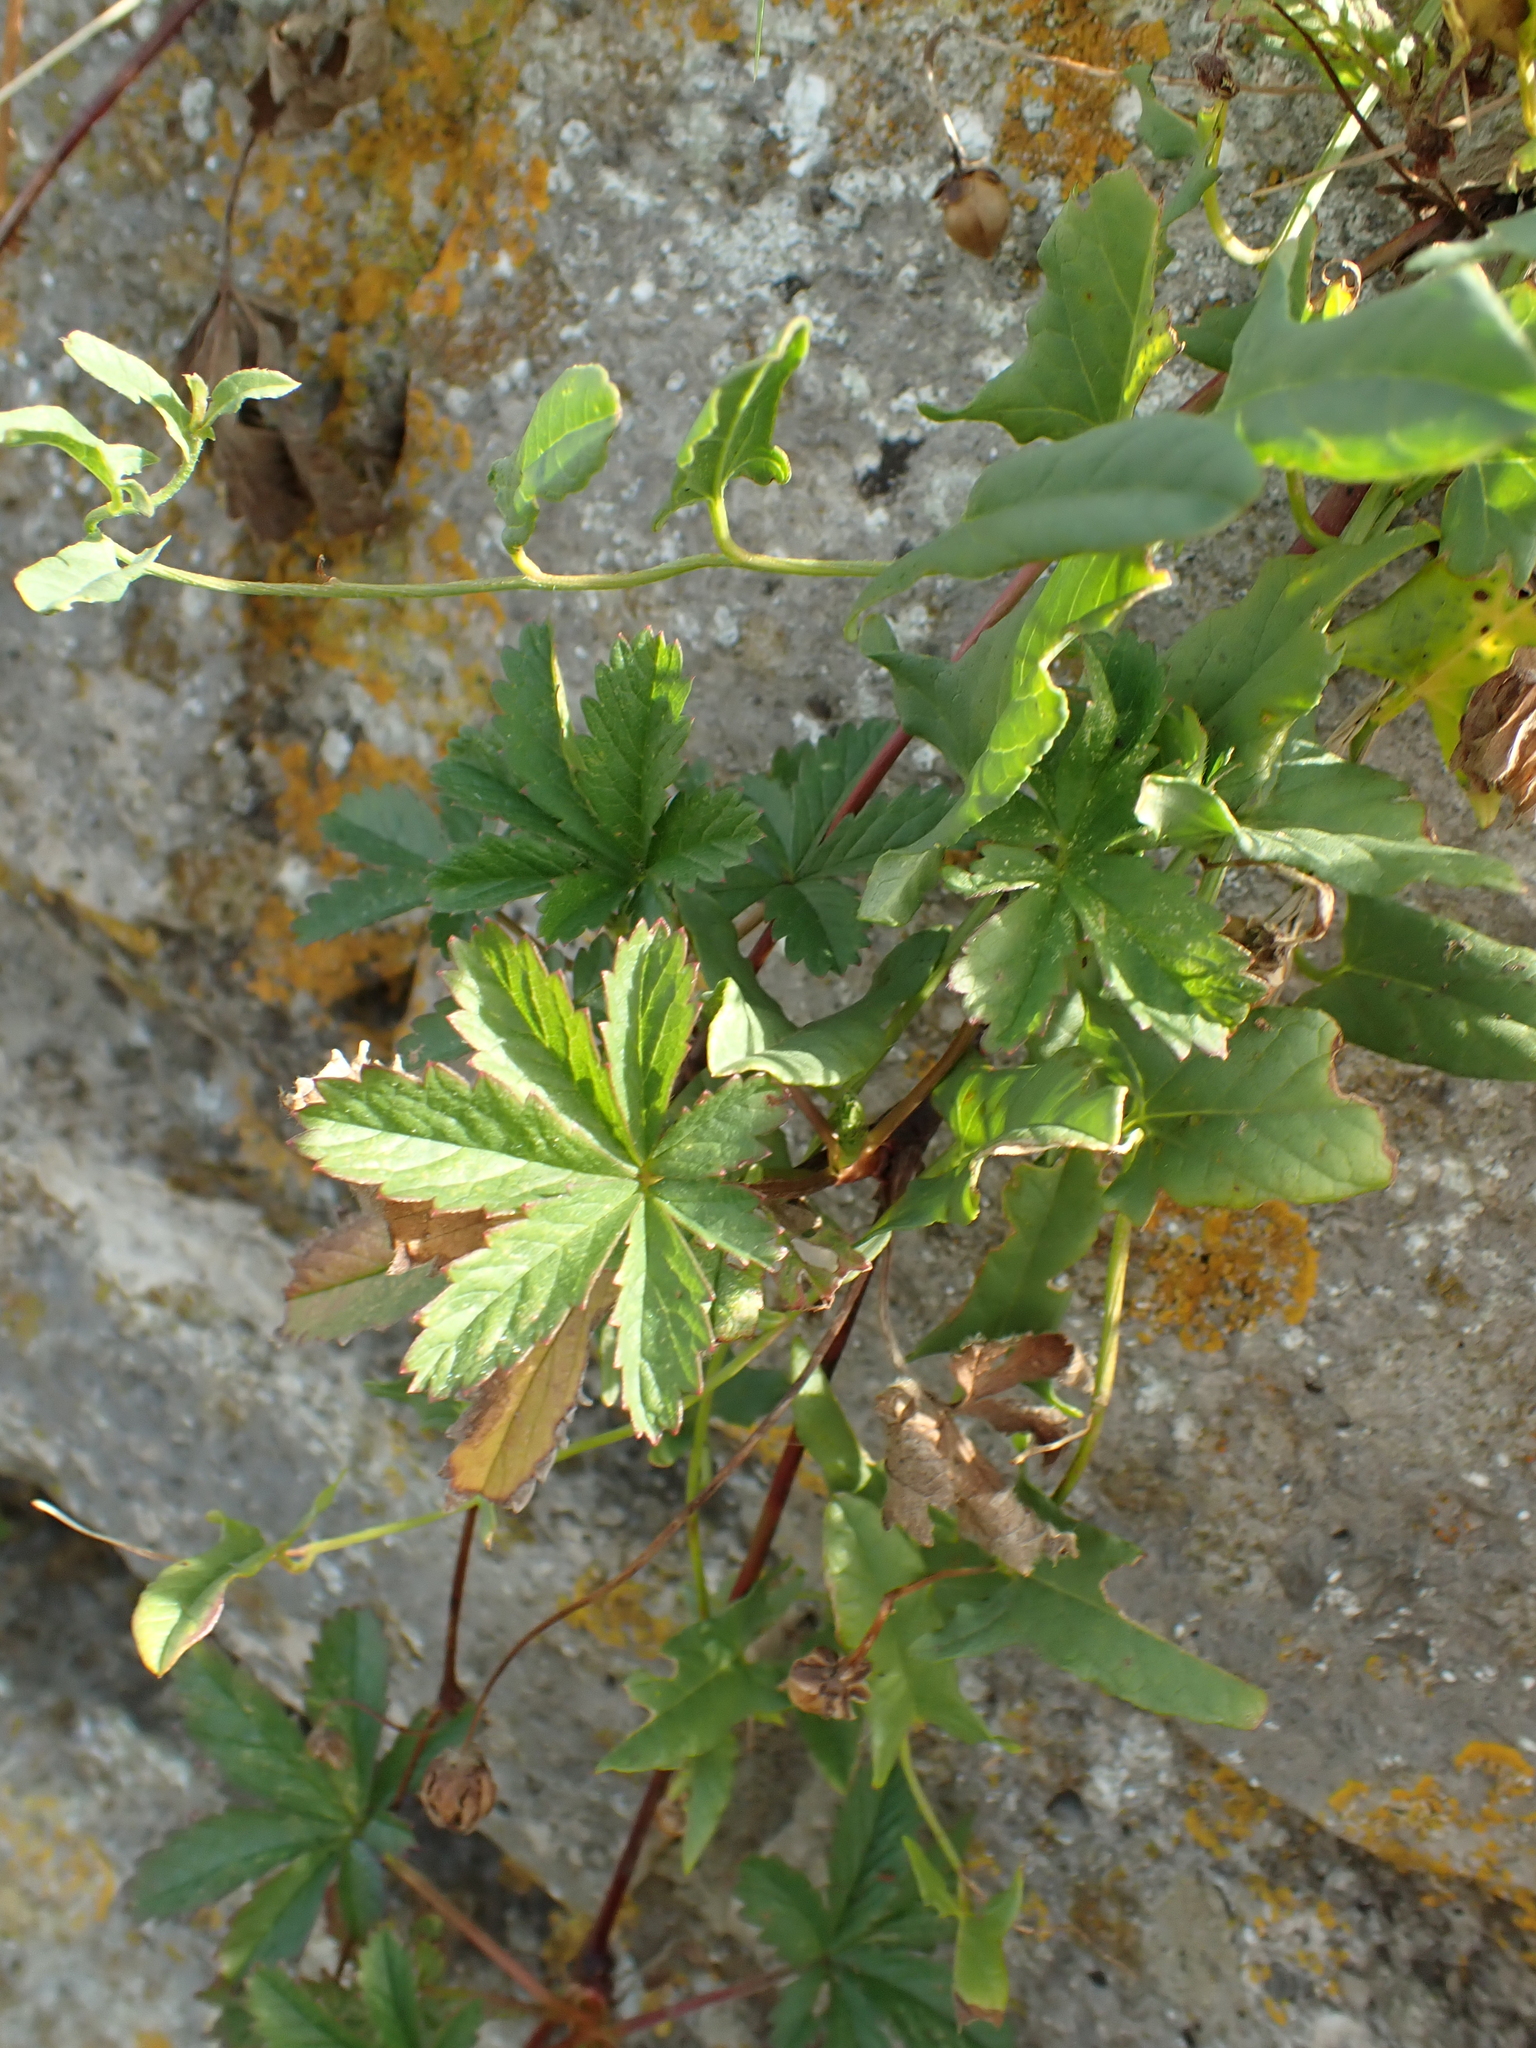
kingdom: Plantae
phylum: Tracheophyta
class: Magnoliopsida
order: Rosales
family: Rosaceae
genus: Potentilla
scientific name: Potentilla reptans
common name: Creeping cinquefoil
